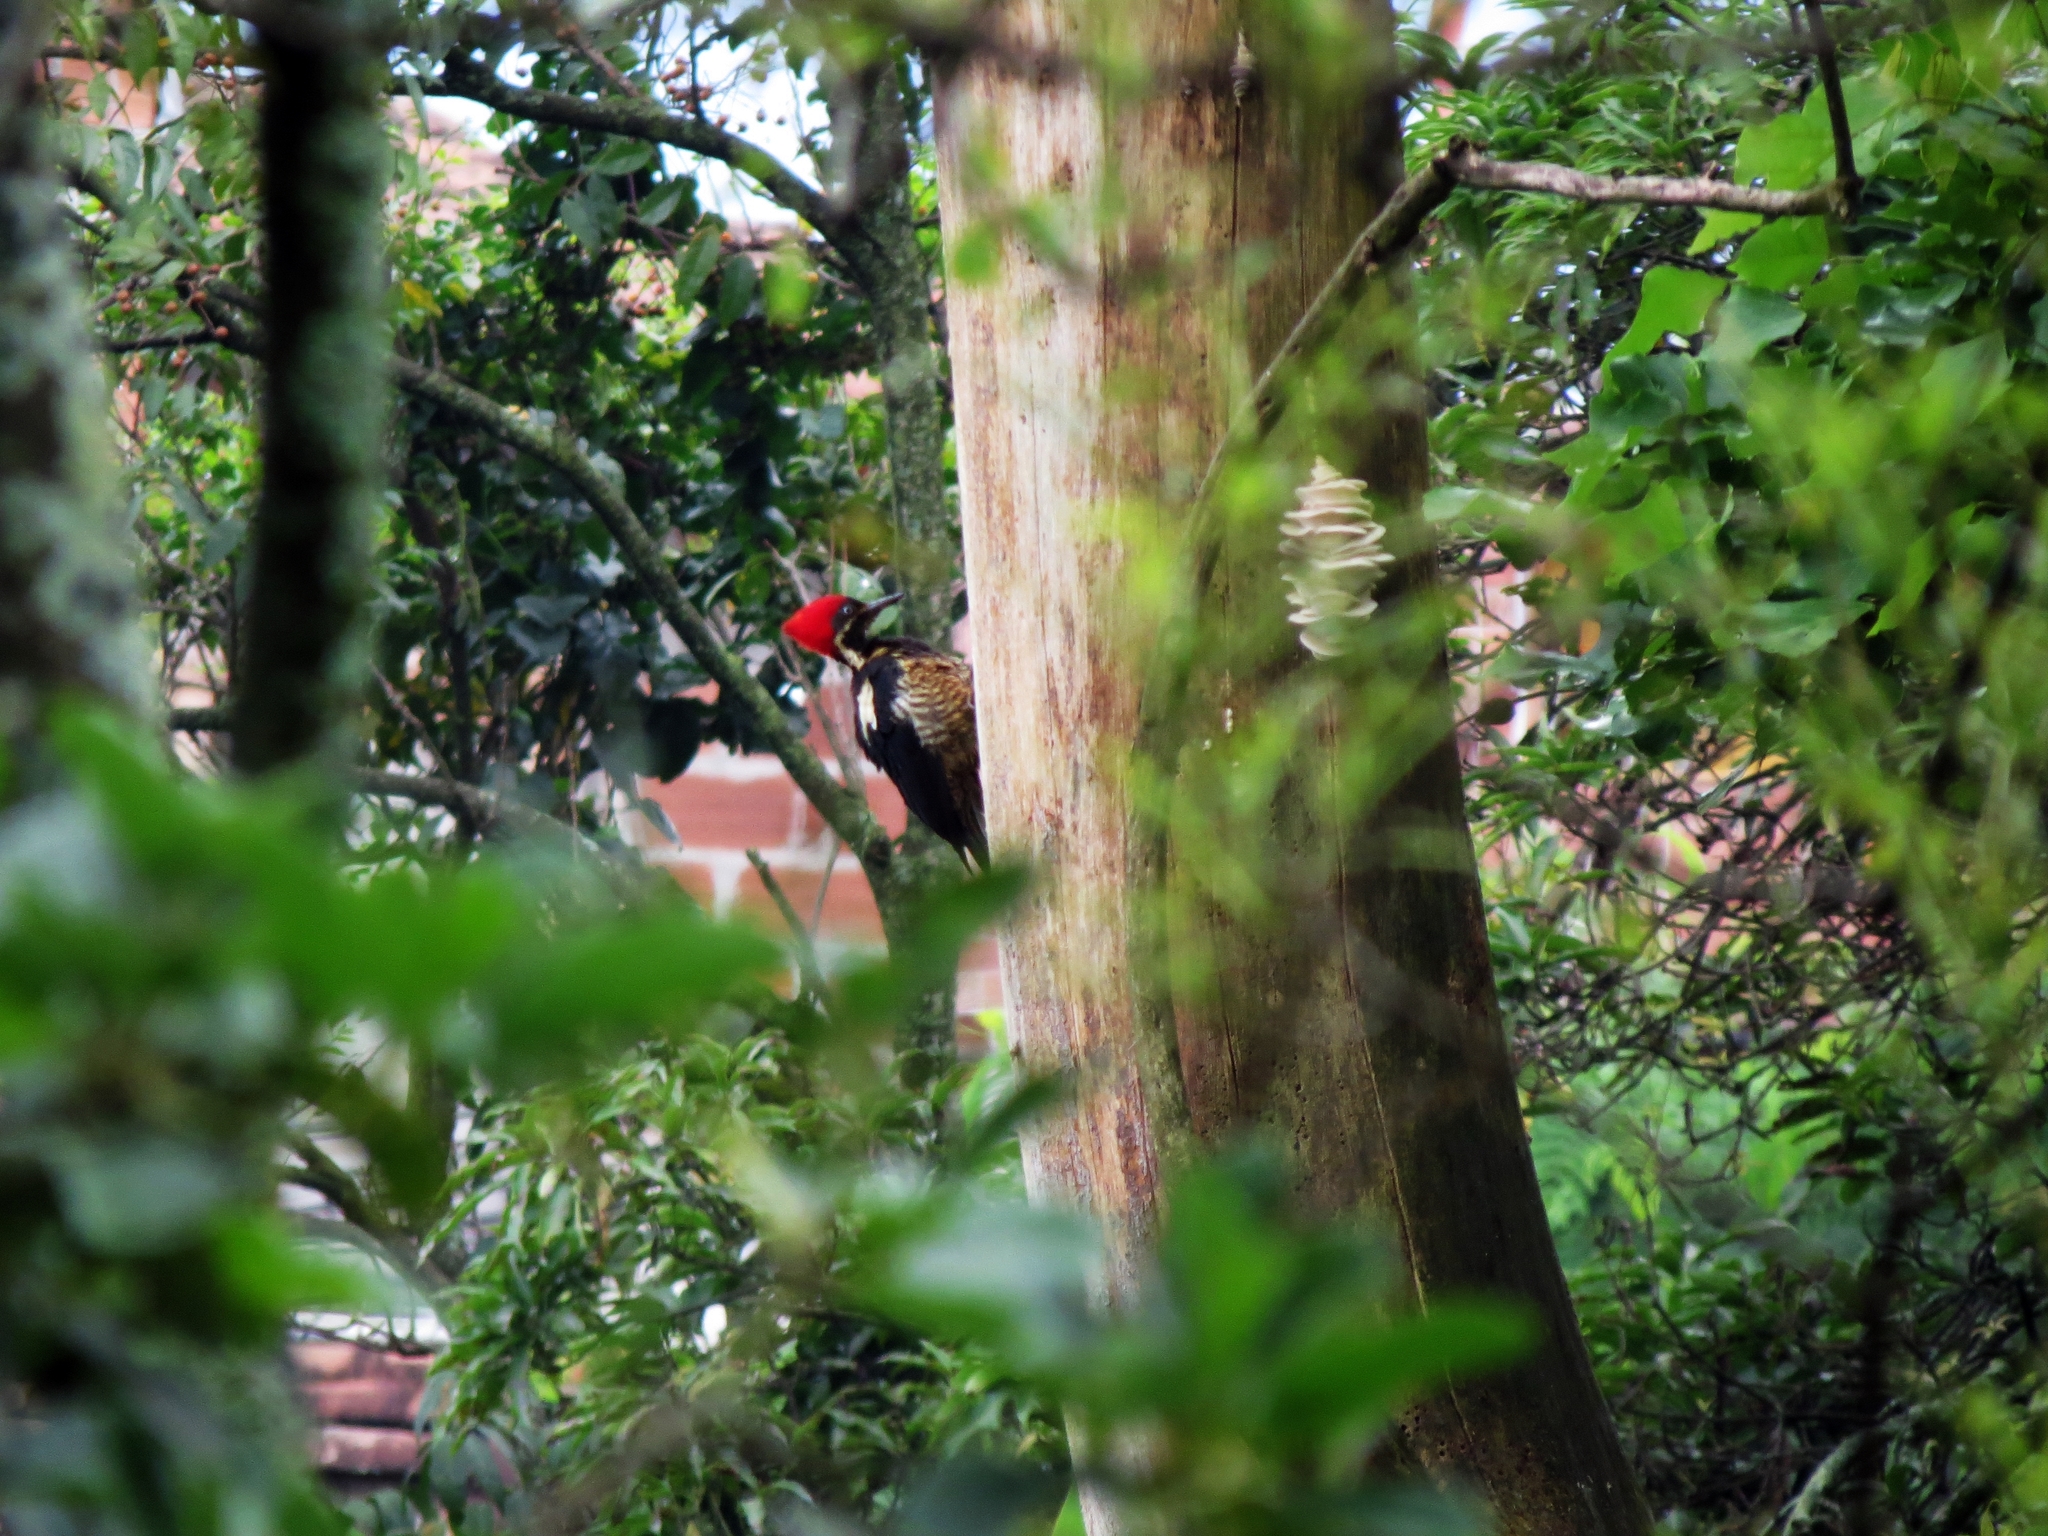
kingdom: Animalia
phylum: Chordata
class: Aves
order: Piciformes
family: Picidae
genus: Dryocopus
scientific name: Dryocopus lineatus
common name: Lineated woodpecker
